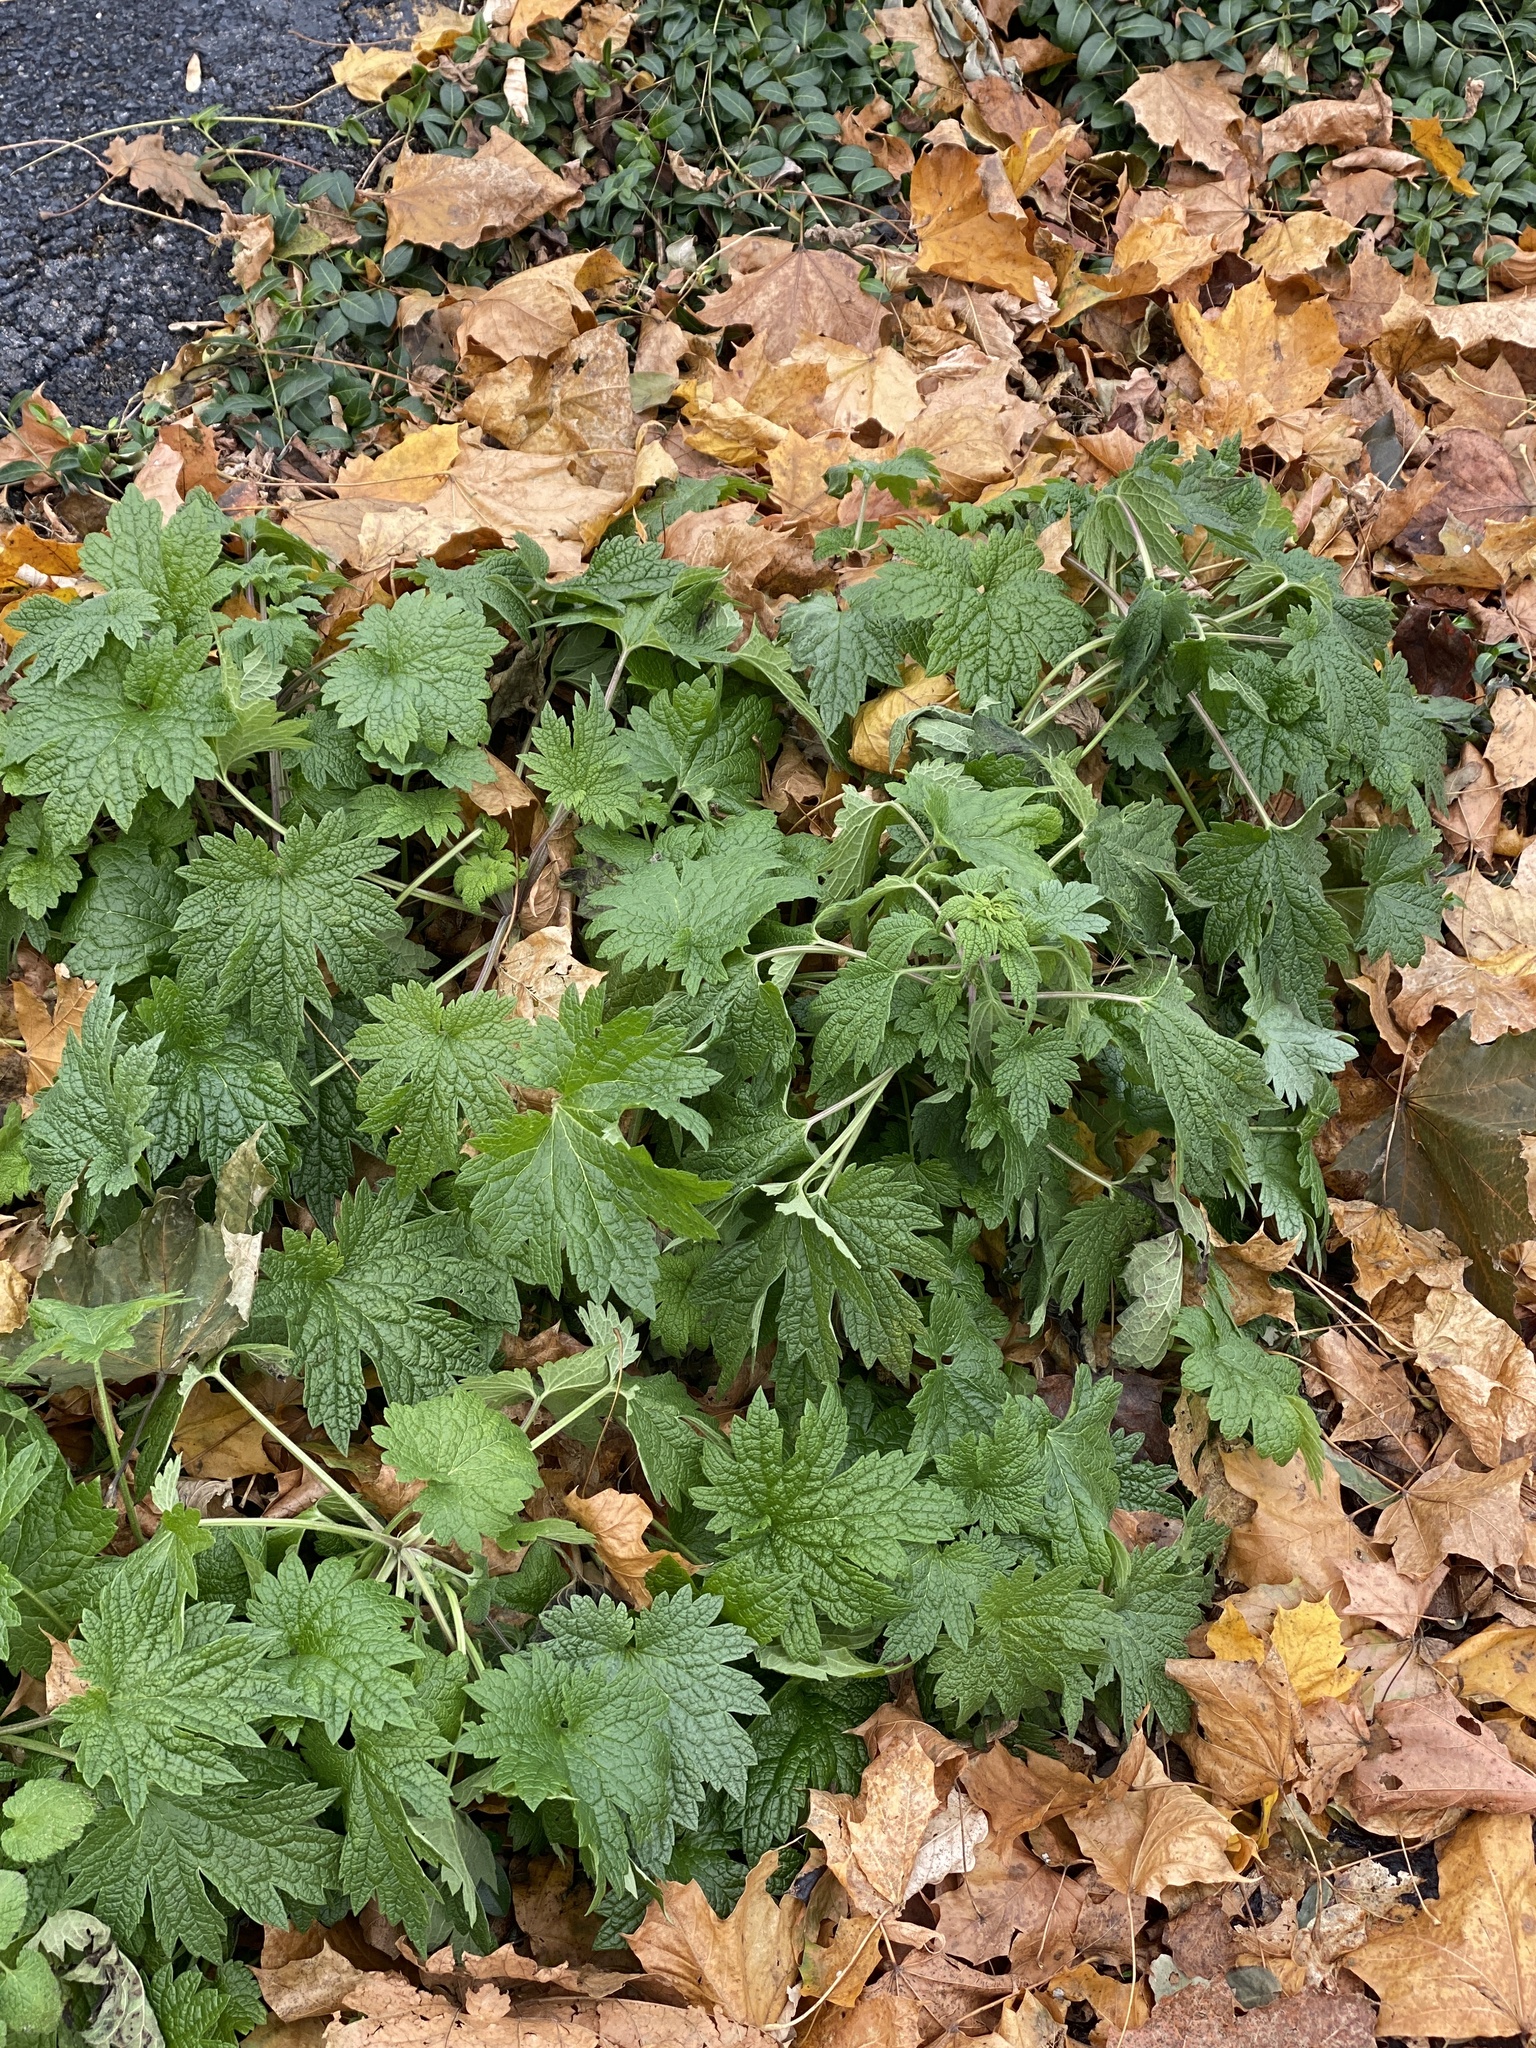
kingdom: Plantae
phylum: Tracheophyta
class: Magnoliopsida
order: Lamiales
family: Lamiaceae
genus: Leonurus
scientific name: Leonurus cardiaca
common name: Motherwort
